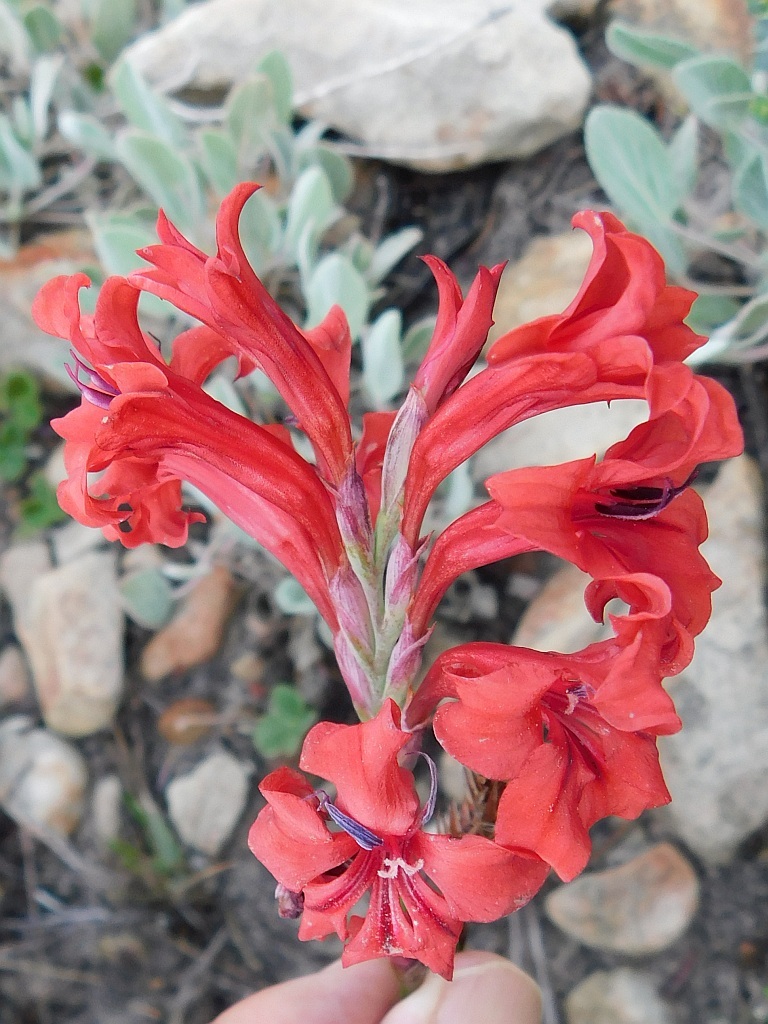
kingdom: Plantae
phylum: Tracheophyta
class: Liliopsida
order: Asparagales
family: Iridaceae
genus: Tritoniopsis
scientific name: Tritoniopsis pulchra
